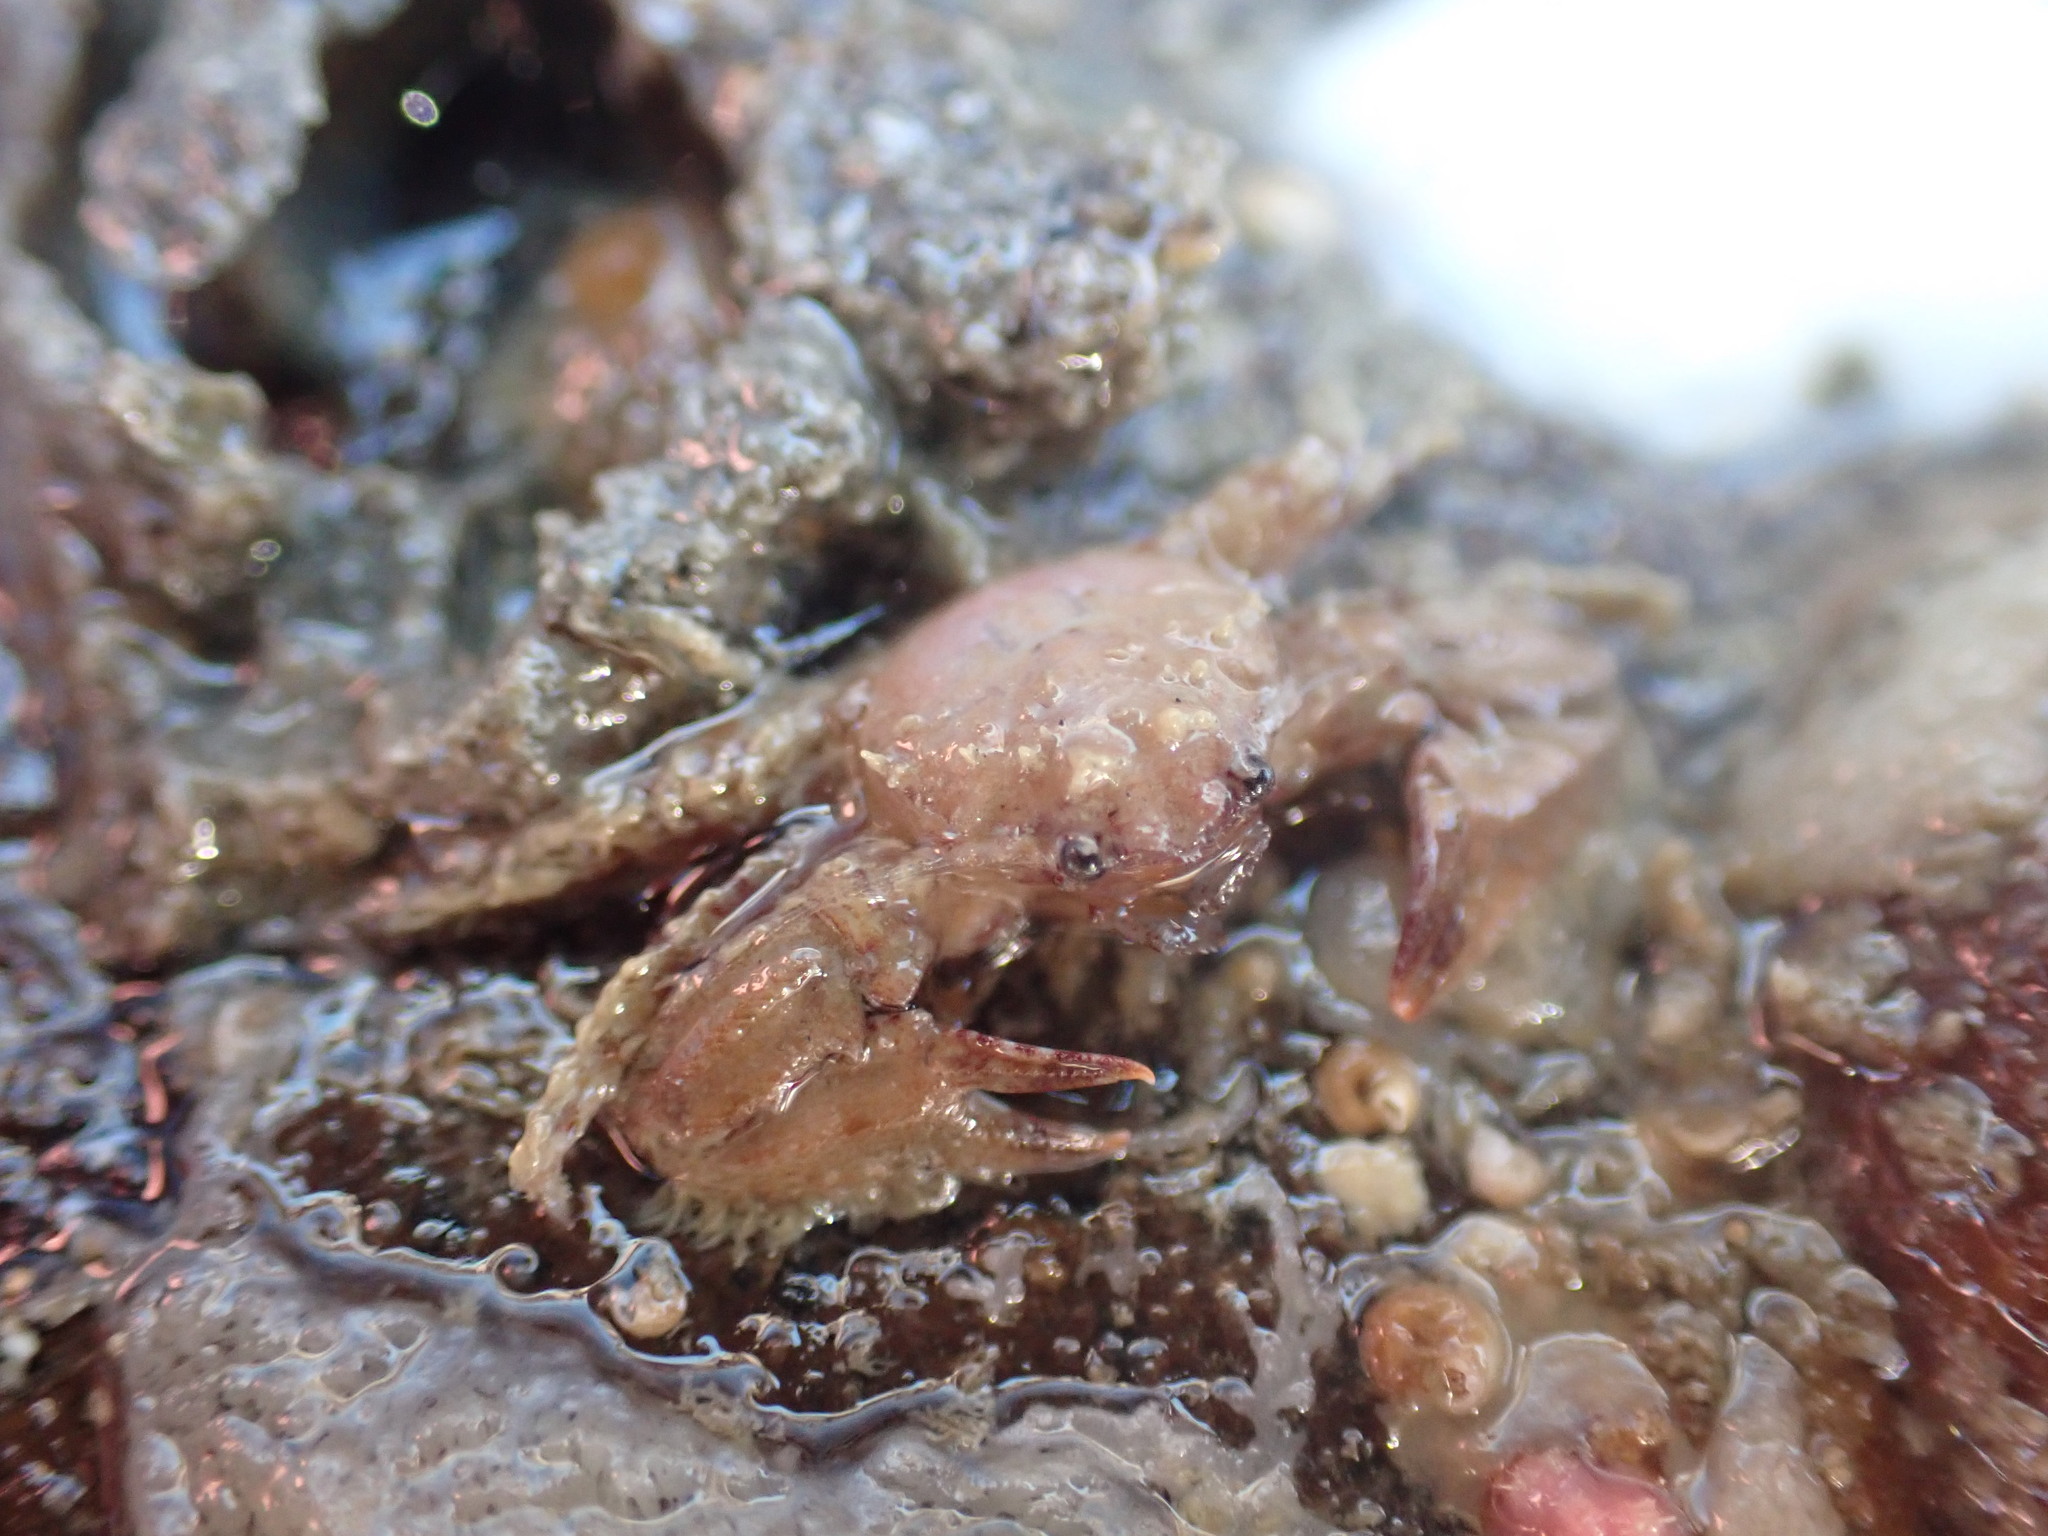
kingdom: Animalia
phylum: Arthropoda
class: Malacostraca
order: Decapoda
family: Porcellanidae
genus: Petrolisthes
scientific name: Petrolisthes novaezelandiae
